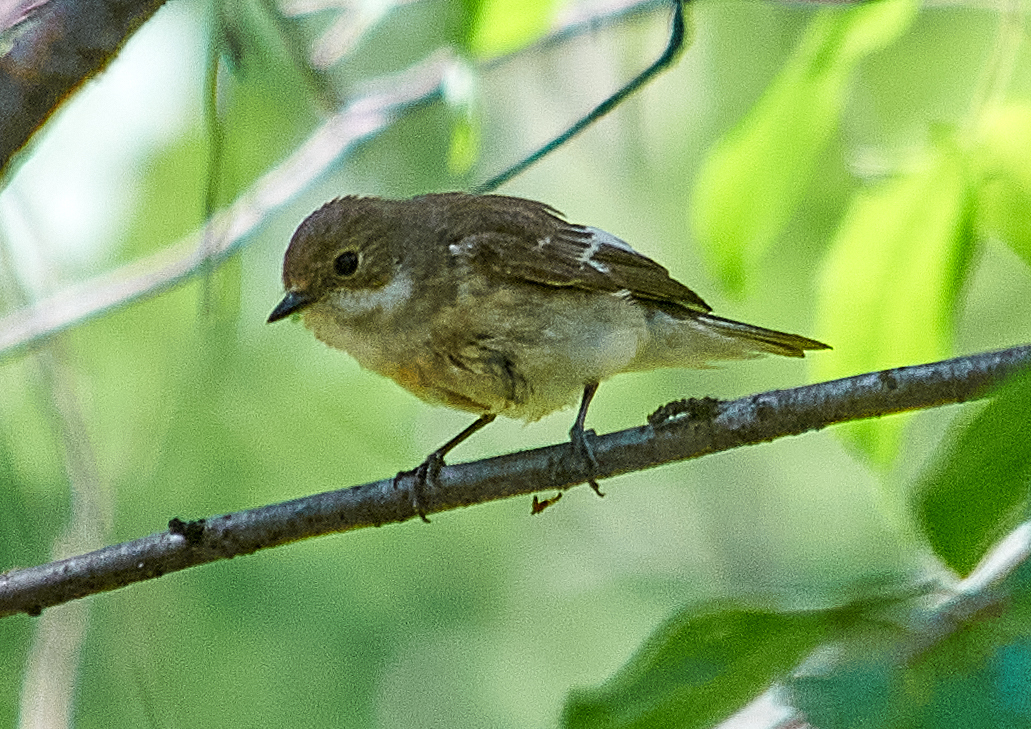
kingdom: Animalia
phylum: Chordata
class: Aves
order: Passeriformes
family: Muscicapidae
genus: Ficedula
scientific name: Ficedula hypoleuca
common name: European pied flycatcher
